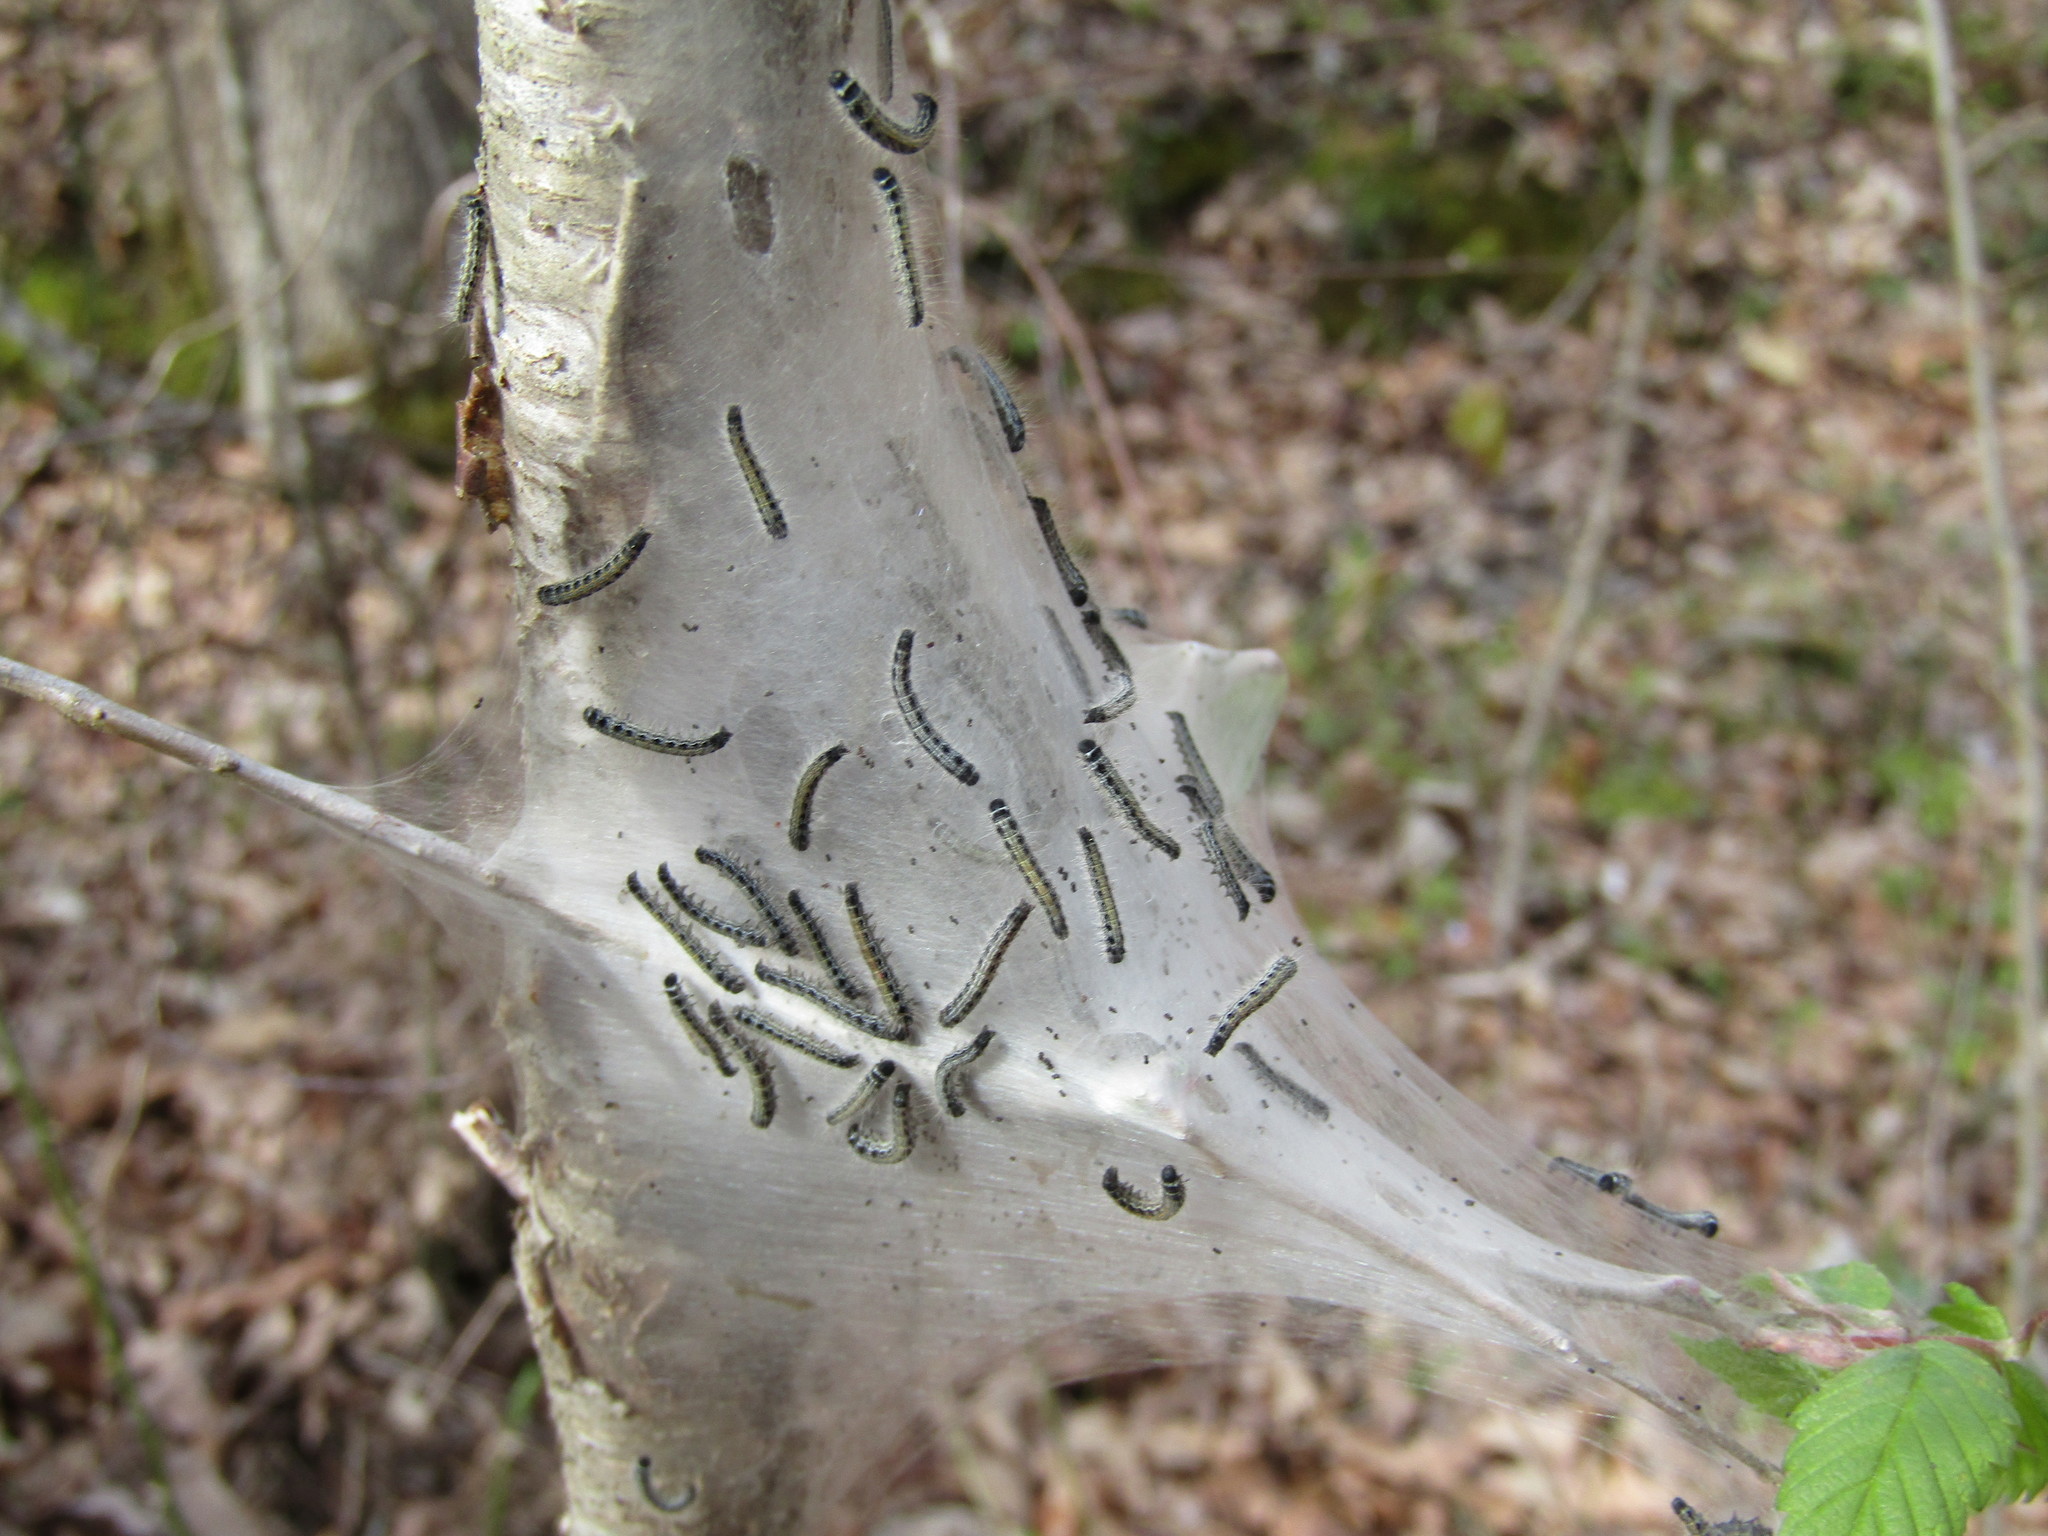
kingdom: Animalia
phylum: Arthropoda
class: Insecta
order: Lepidoptera
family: Lasiocampidae
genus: Malacosoma
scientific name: Malacosoma americana
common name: Eastern tent caterpillar moth
